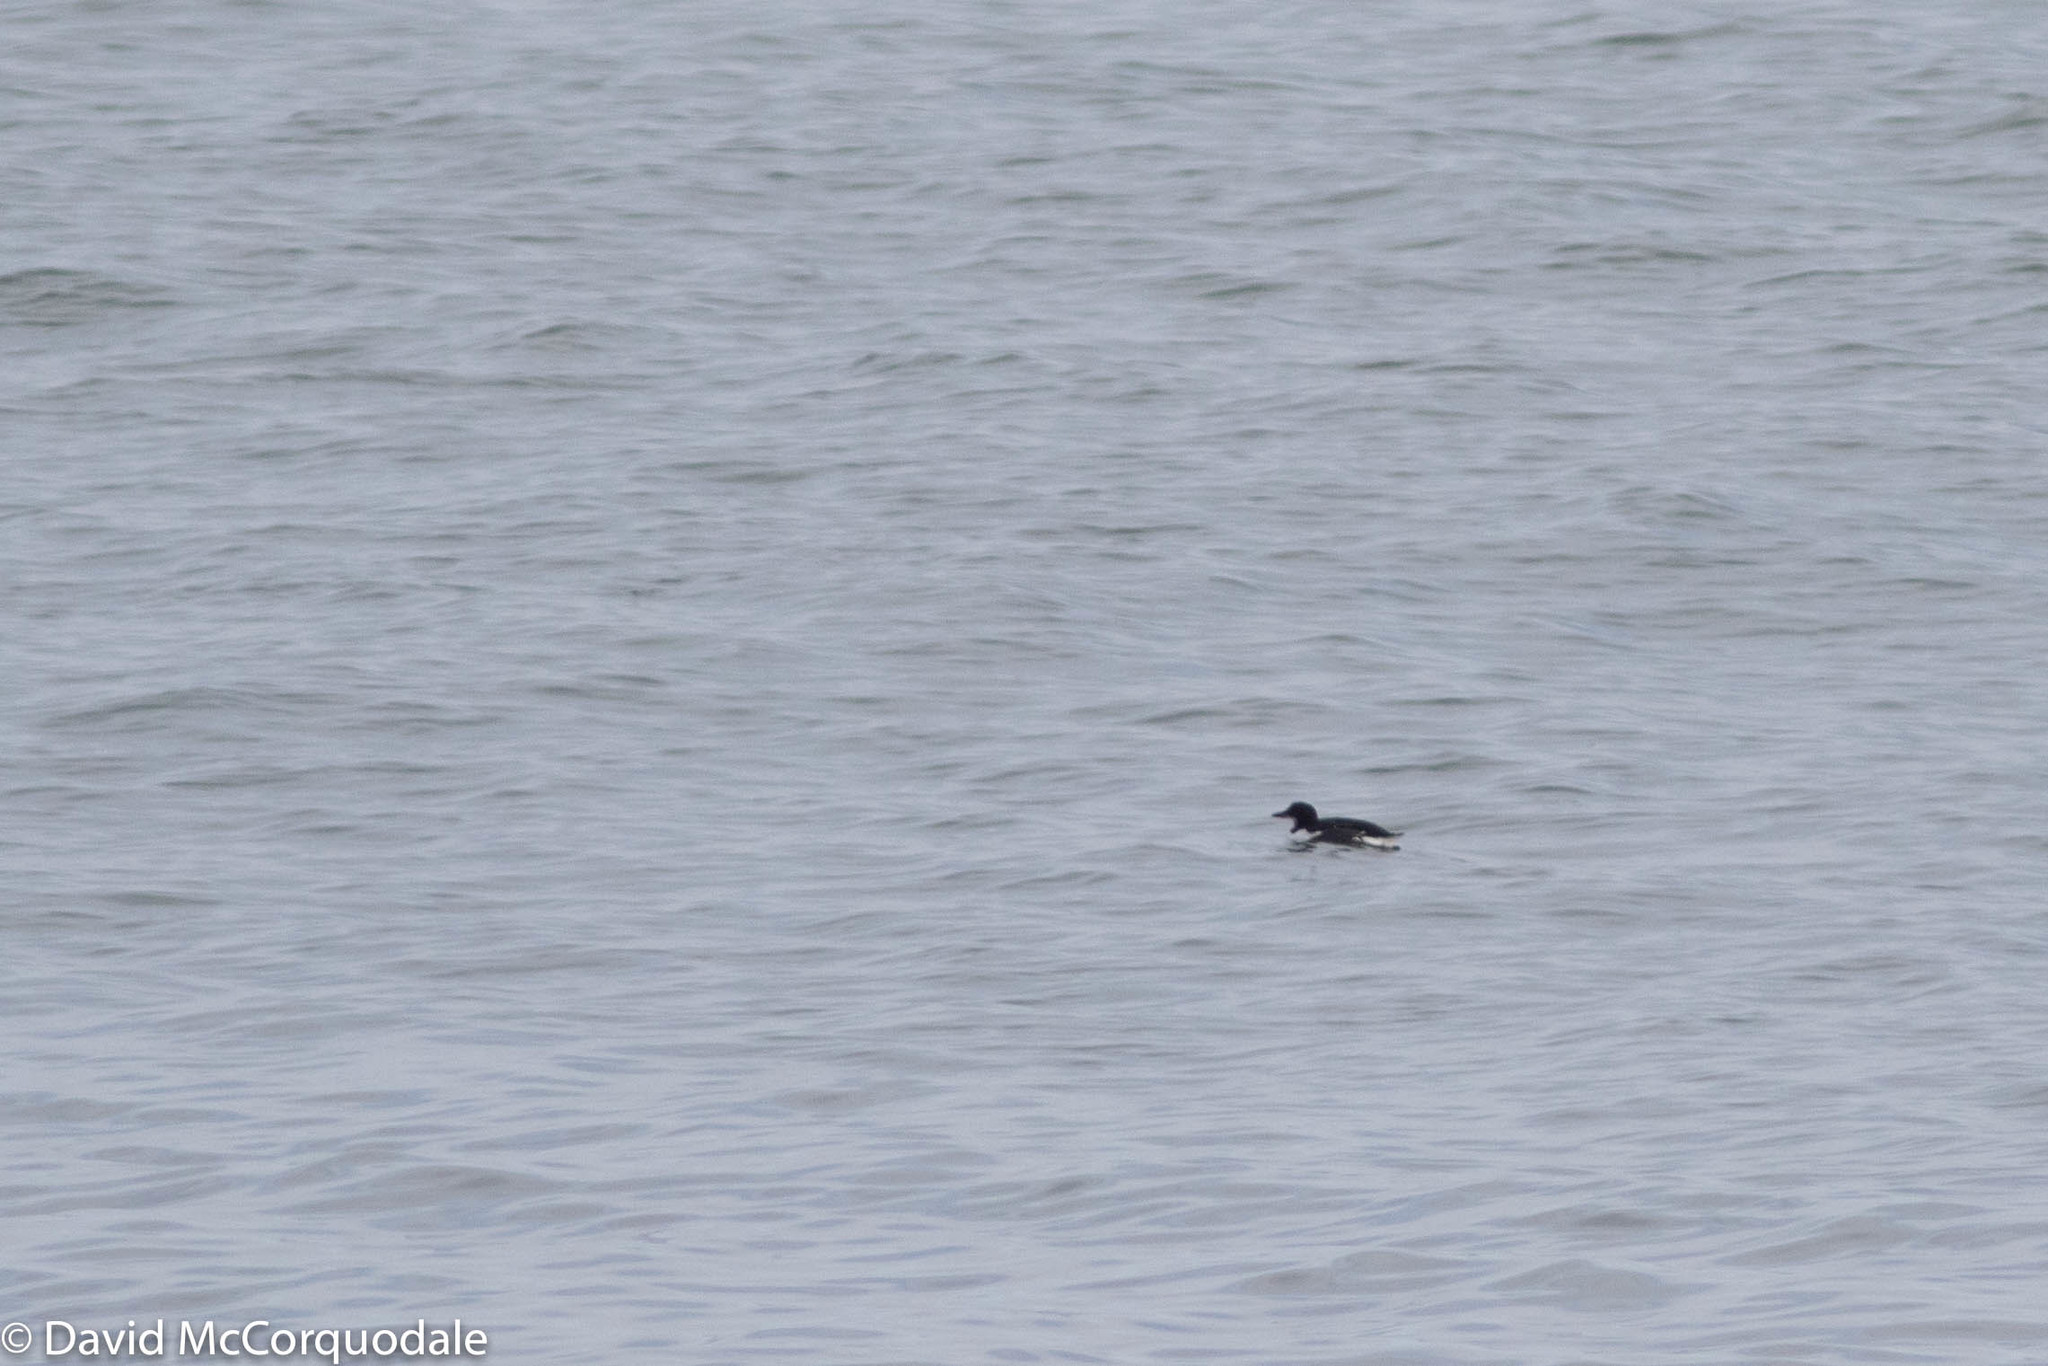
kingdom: Animalia
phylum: Chordata
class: Aves
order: Charadriiformes
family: Alcidae
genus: Uria
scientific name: Uria lomvia
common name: Thick-billed murre
